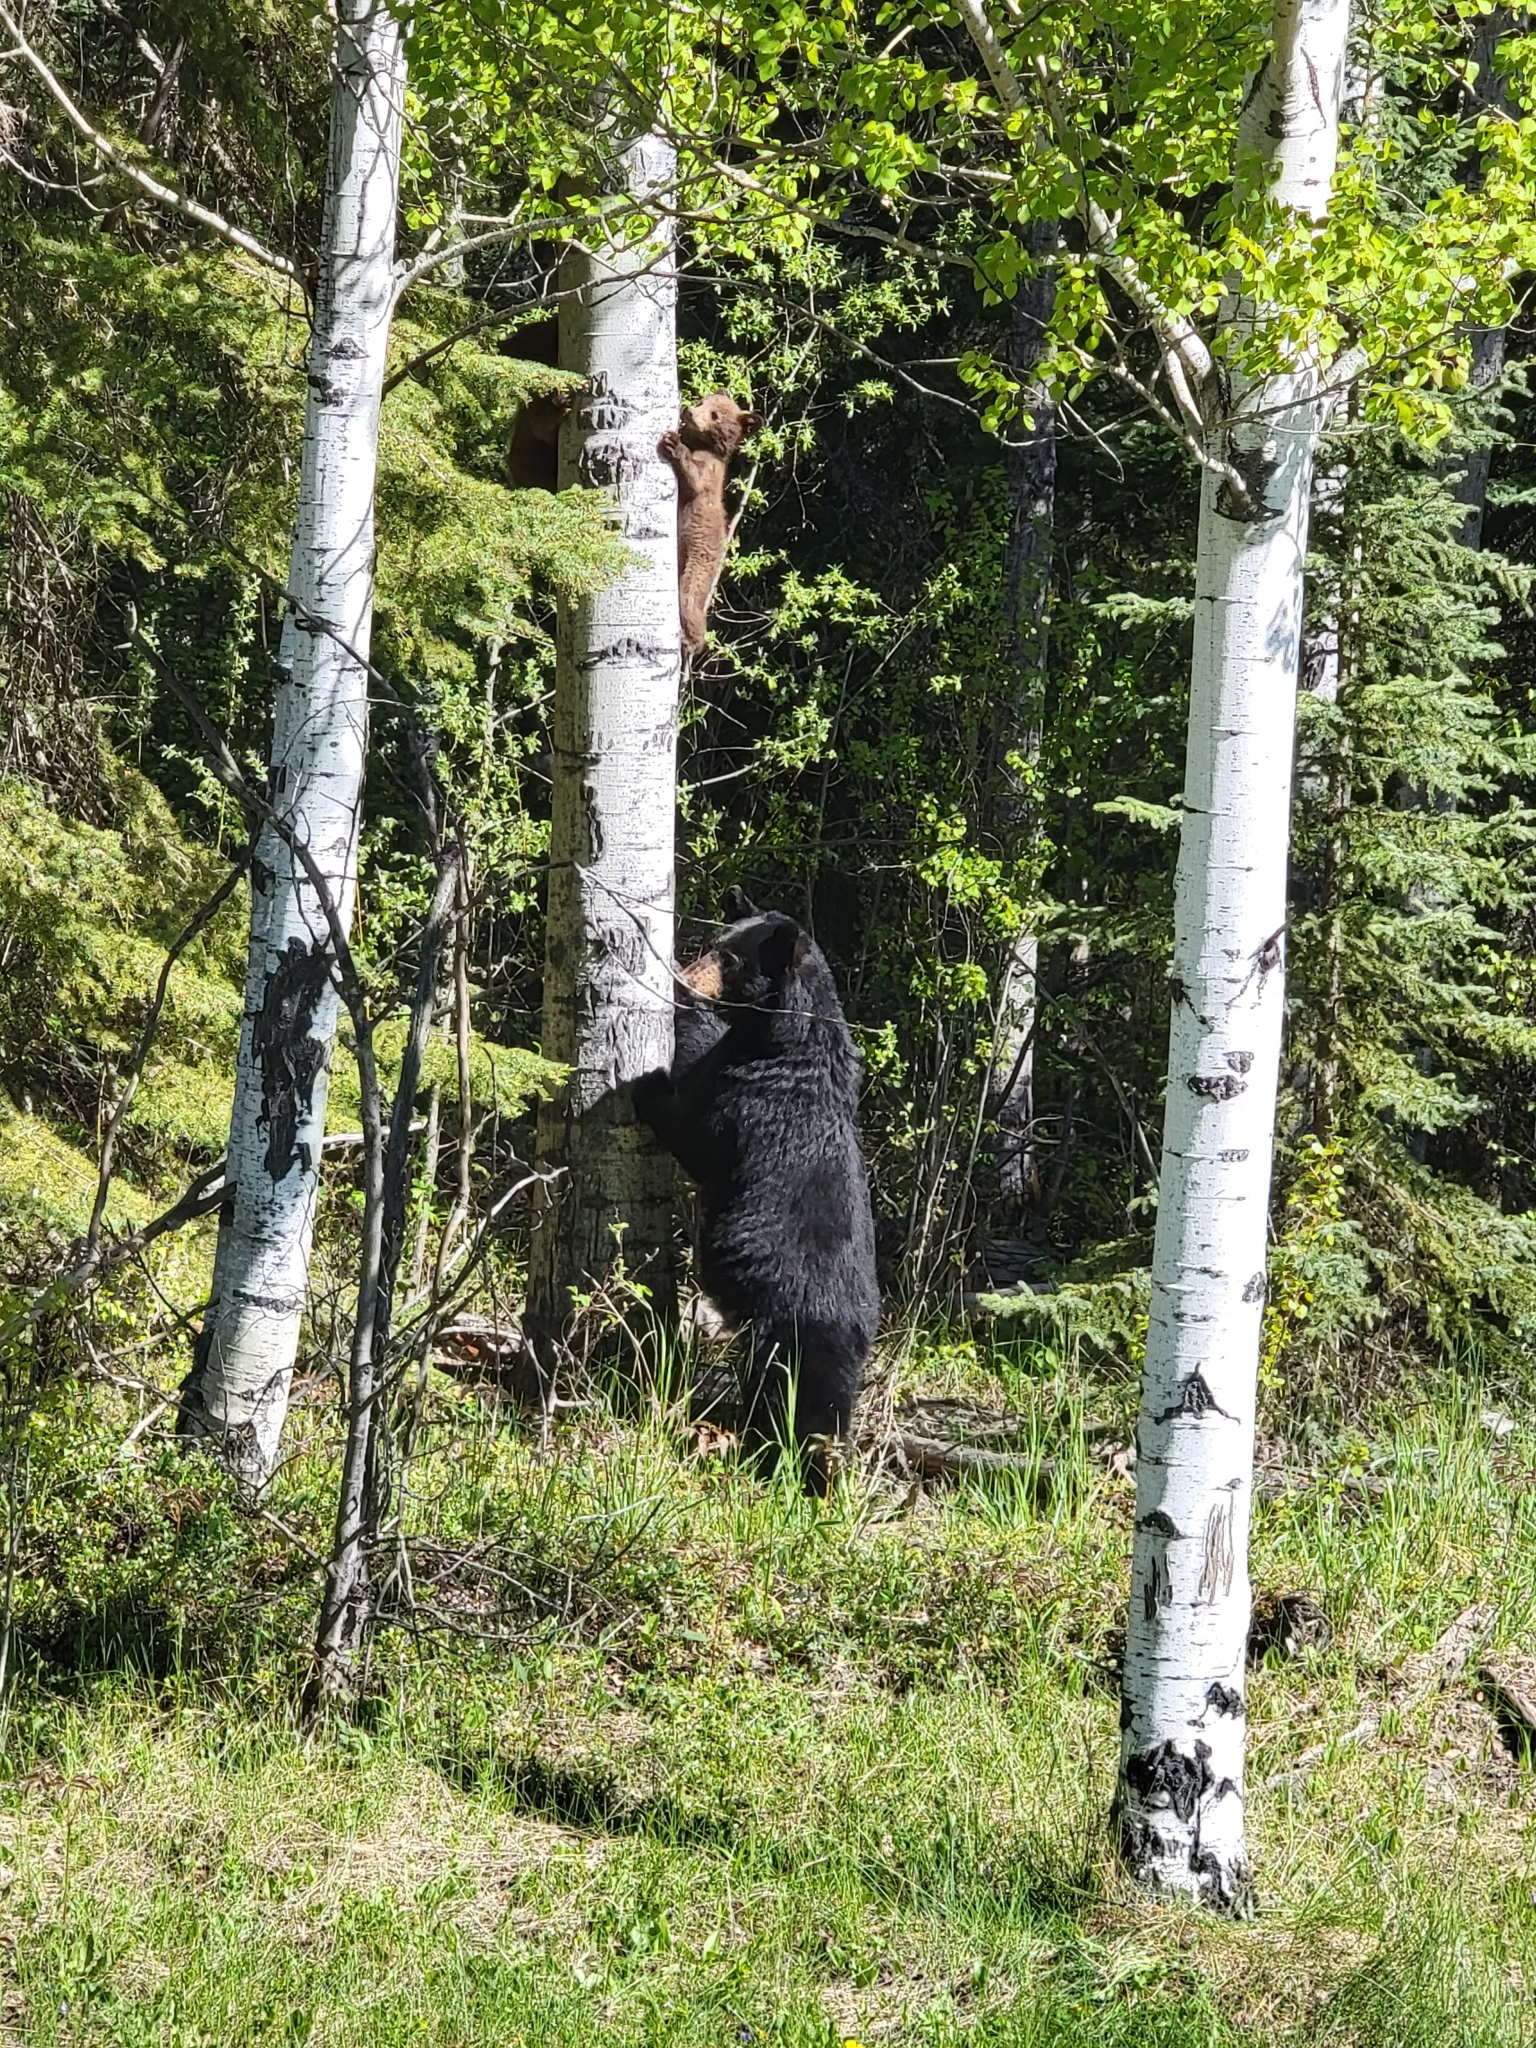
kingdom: Animalia
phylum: Chordata
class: Mammalia
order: Carnivora
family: Ursidae
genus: Ursus
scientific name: Ursus americanus
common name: American black bear
